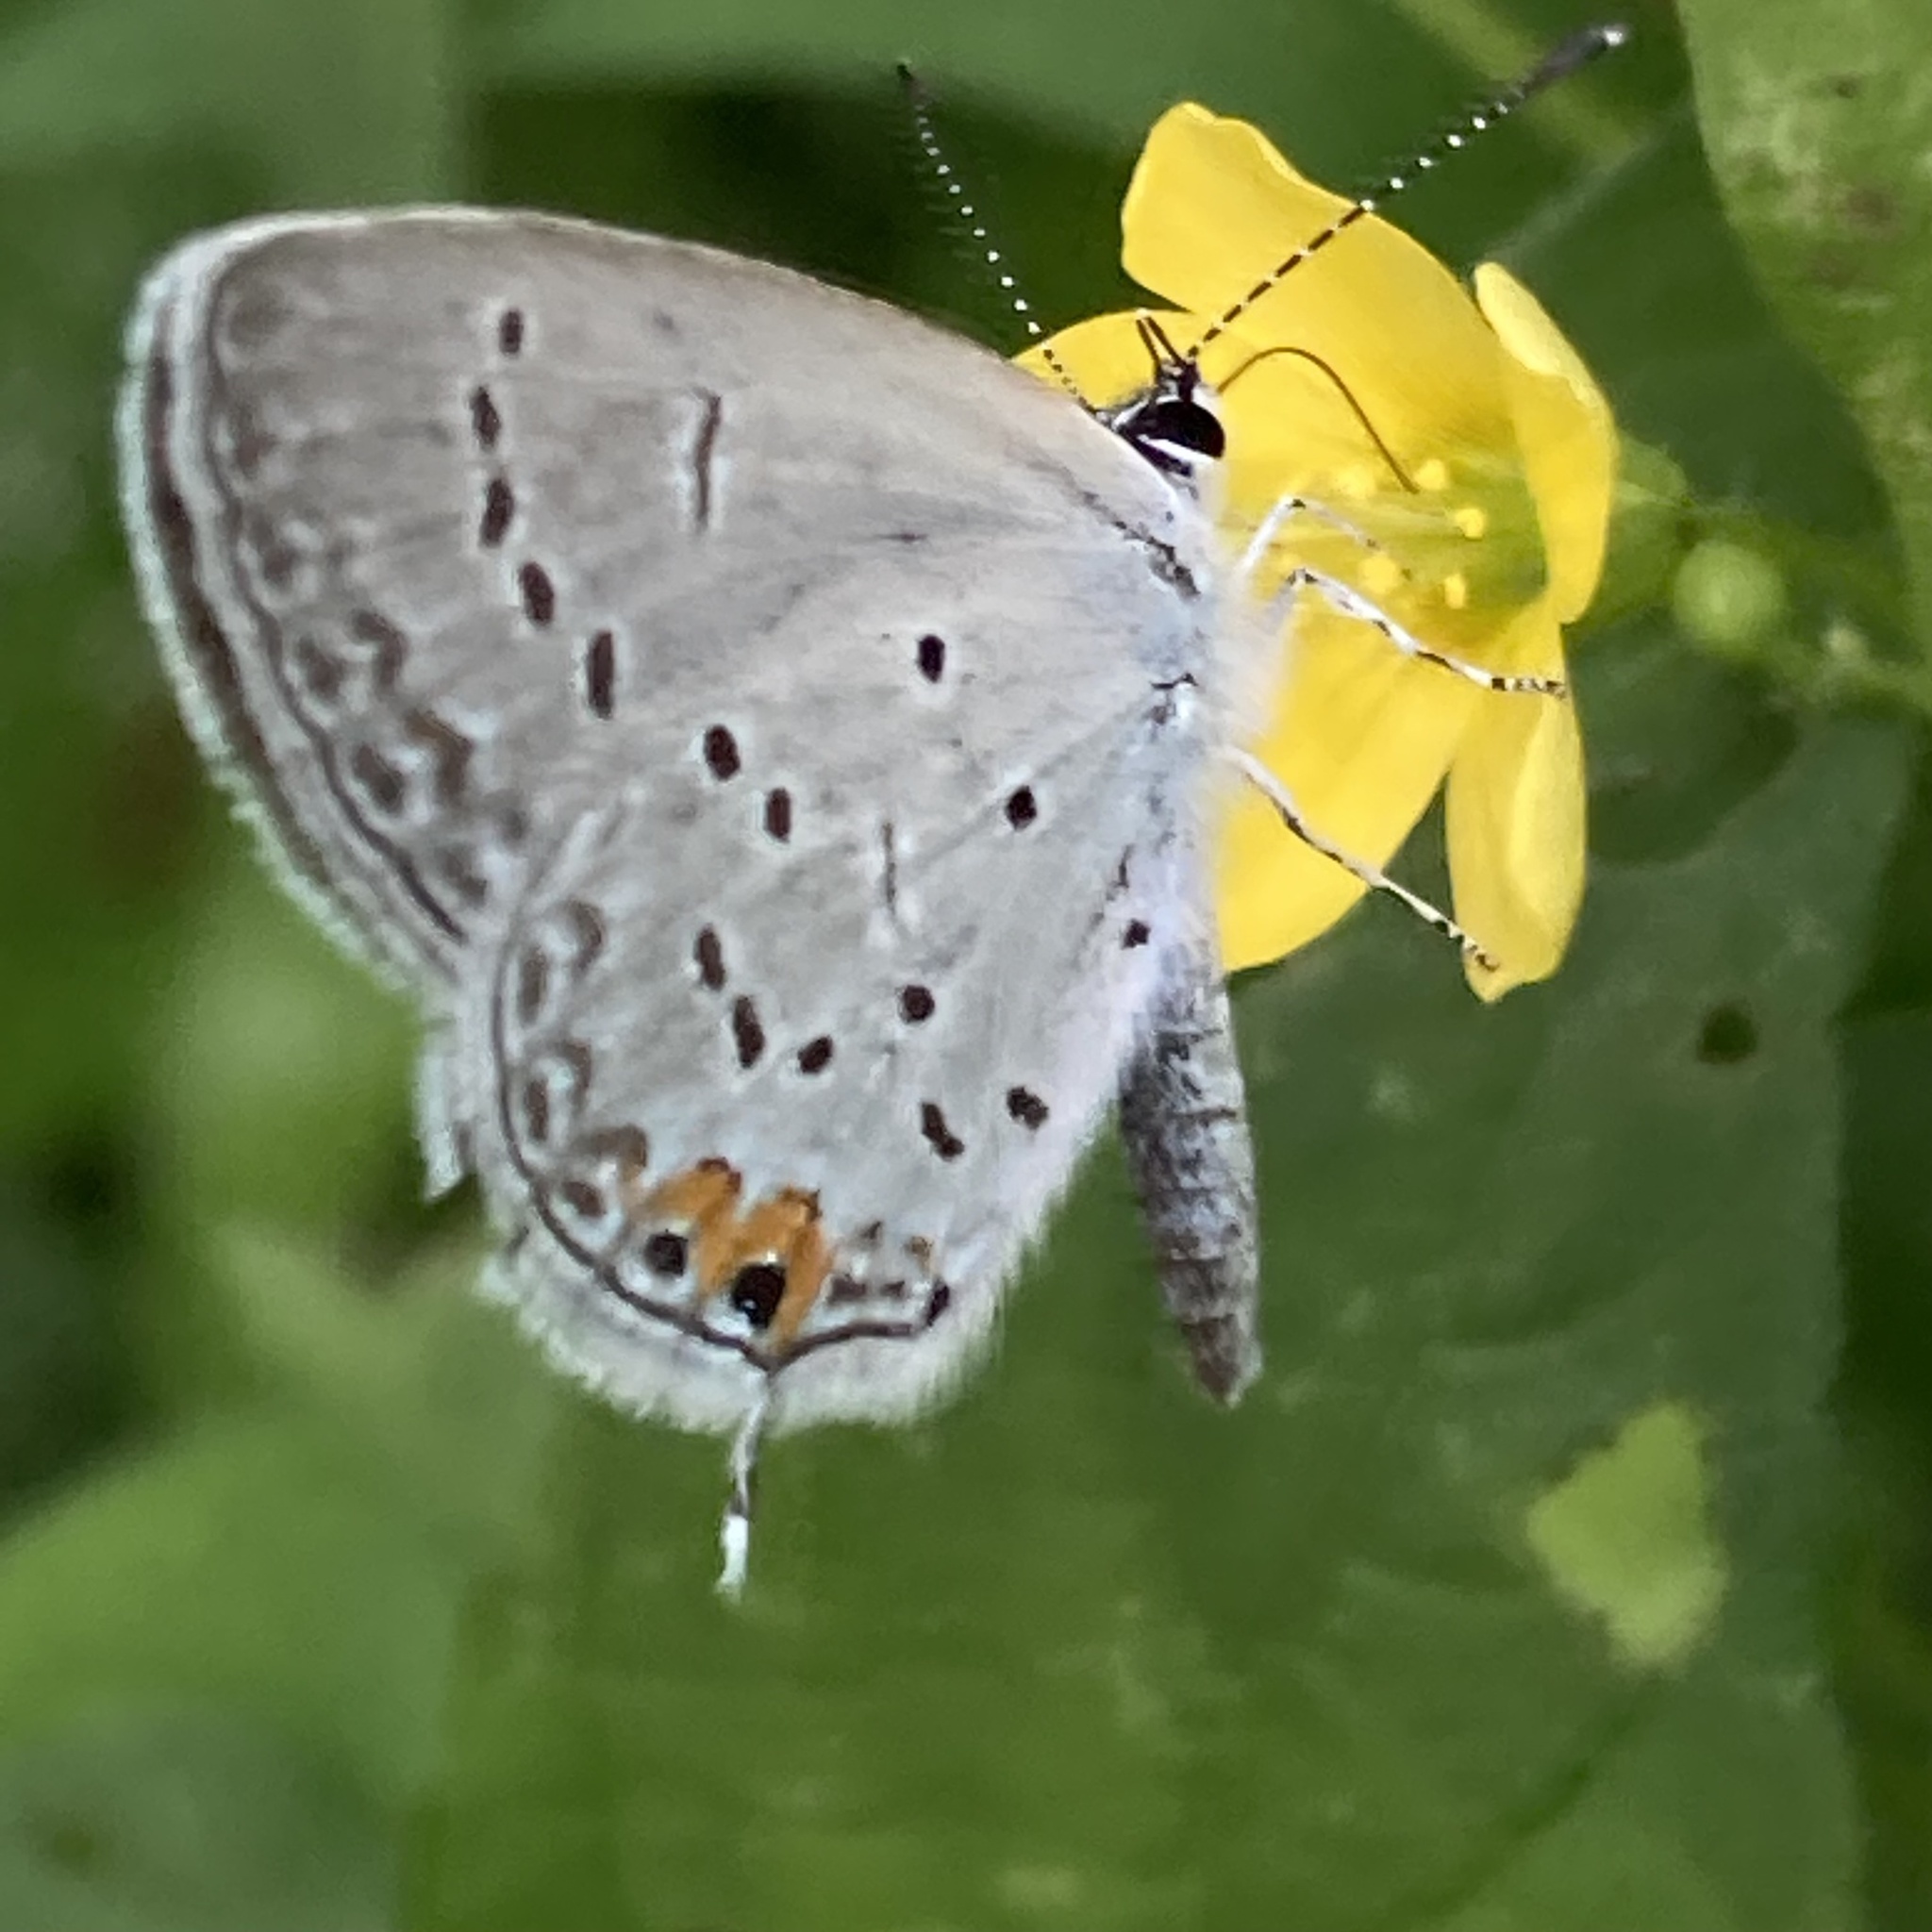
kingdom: Animalia
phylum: Arthropoda
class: Insecta
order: Lepidoptera
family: Lycaenidae
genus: Elkalyce
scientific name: Elkalyce comyntas
